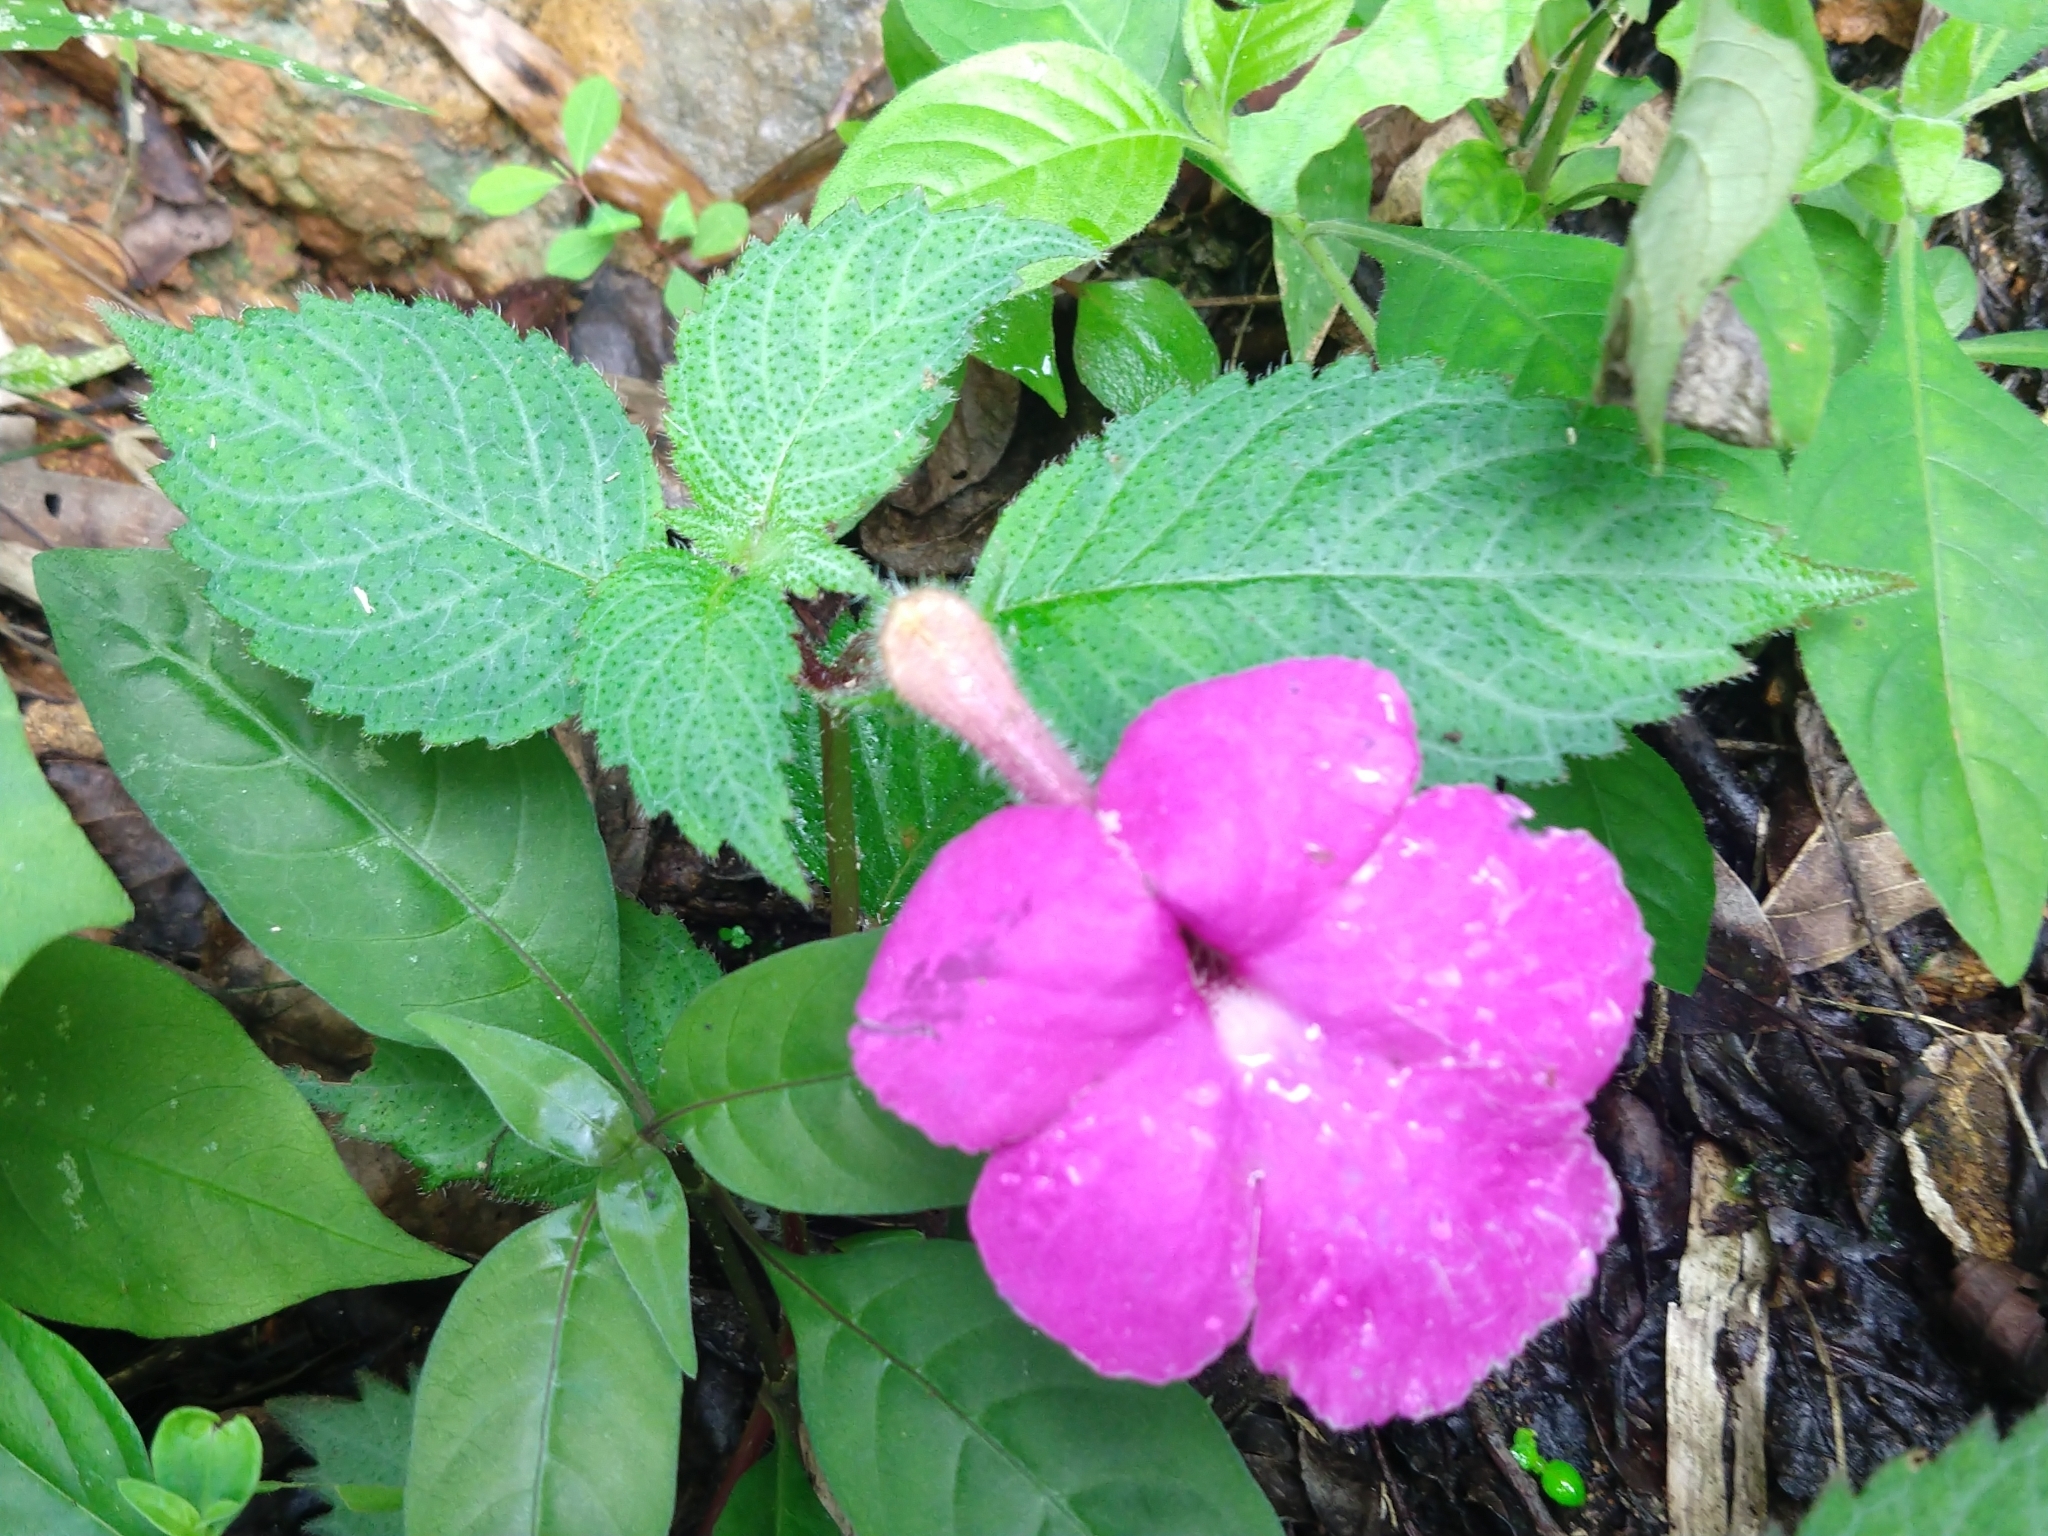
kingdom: Plantae
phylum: Tracheophyta
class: Magnoliopsida
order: Lamiales
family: Gesneriaceae
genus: Achimenes
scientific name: Achimenes grandiflora
